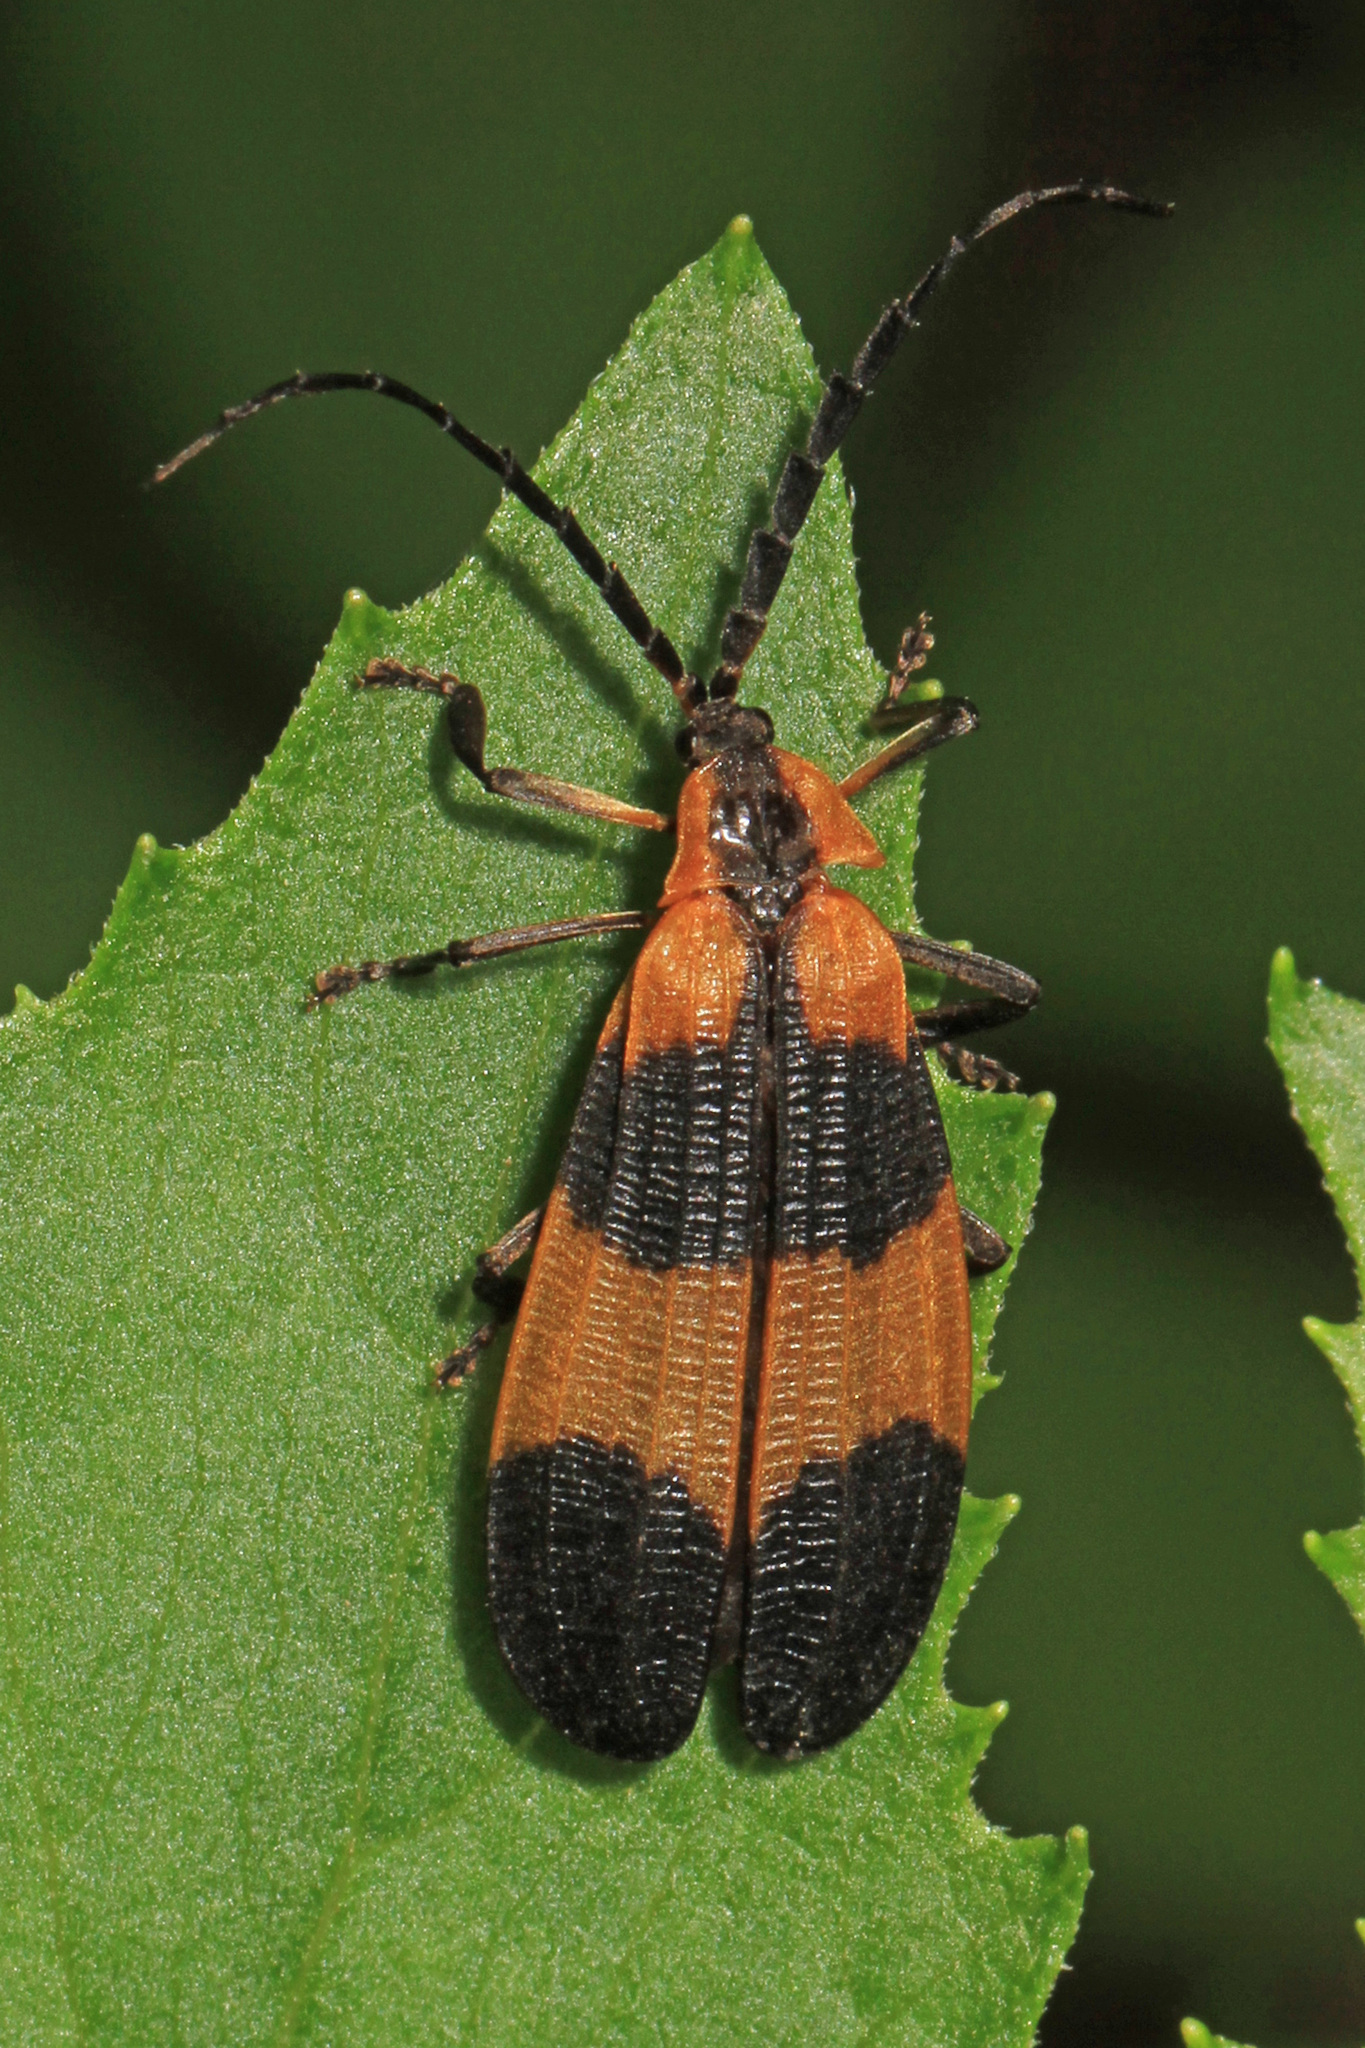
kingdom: Animalia
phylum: Arthropoda
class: Insecta
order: Coleoptera
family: Lycidae
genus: Calopteron
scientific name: Calopteron reticulatum
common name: Banded net-winged beetle
